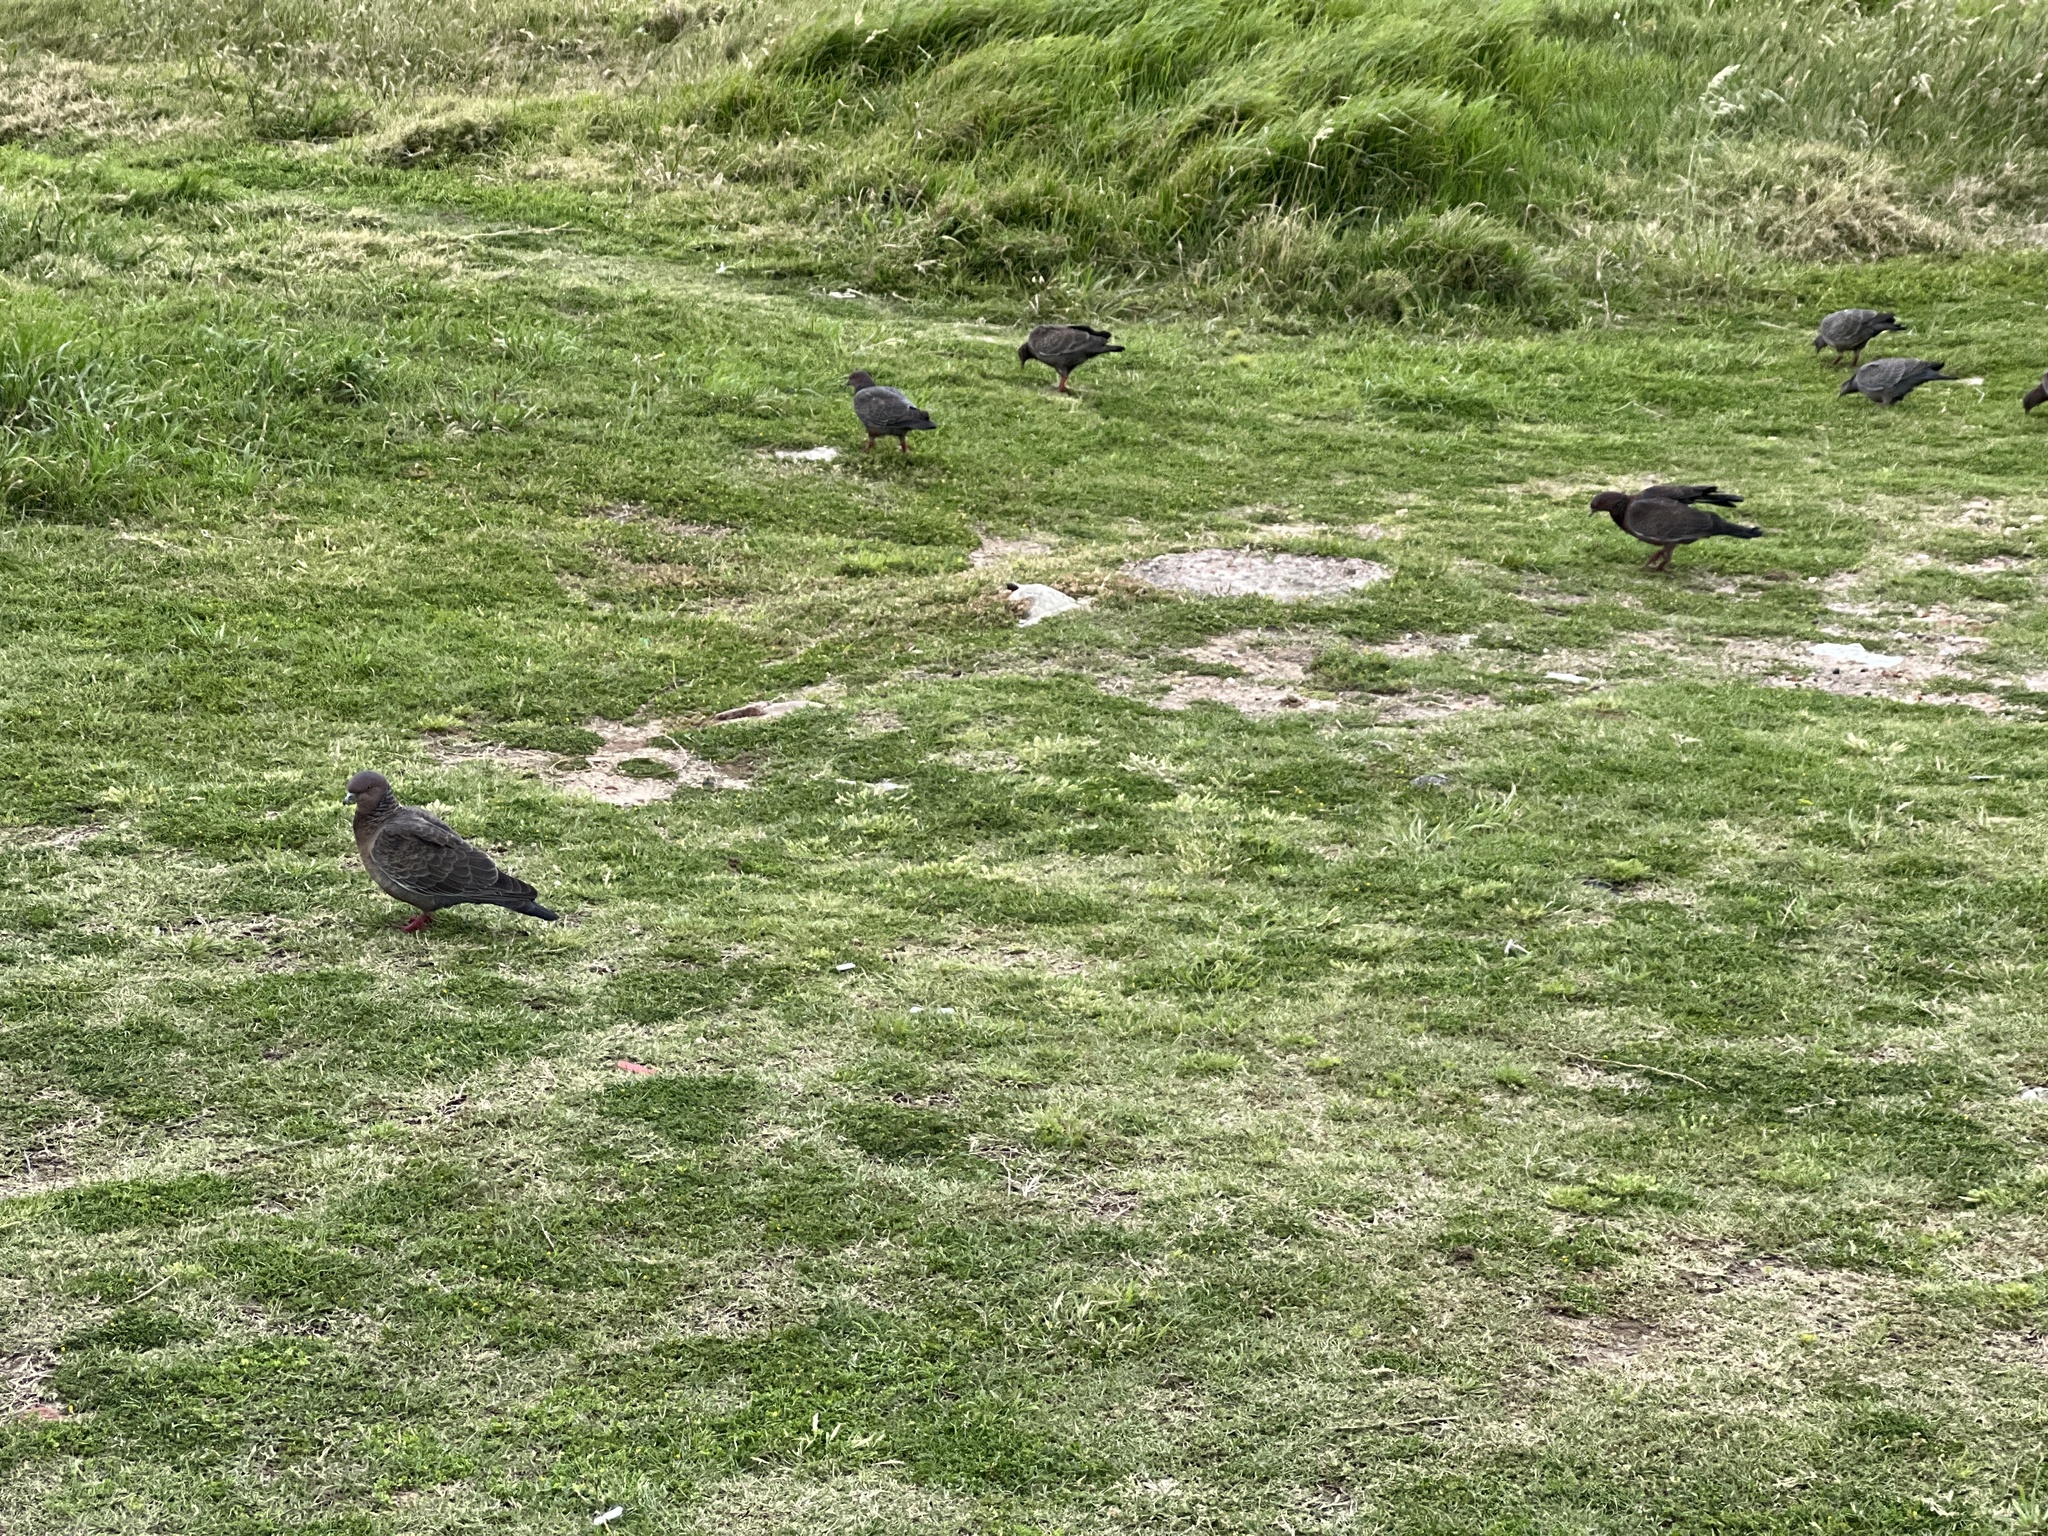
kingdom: Animalia
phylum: Chordata
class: Aves
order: Columbiformes
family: Columbidae
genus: Patagioenas
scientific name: Patagioenas picazuro
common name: Picazuro pigeon
